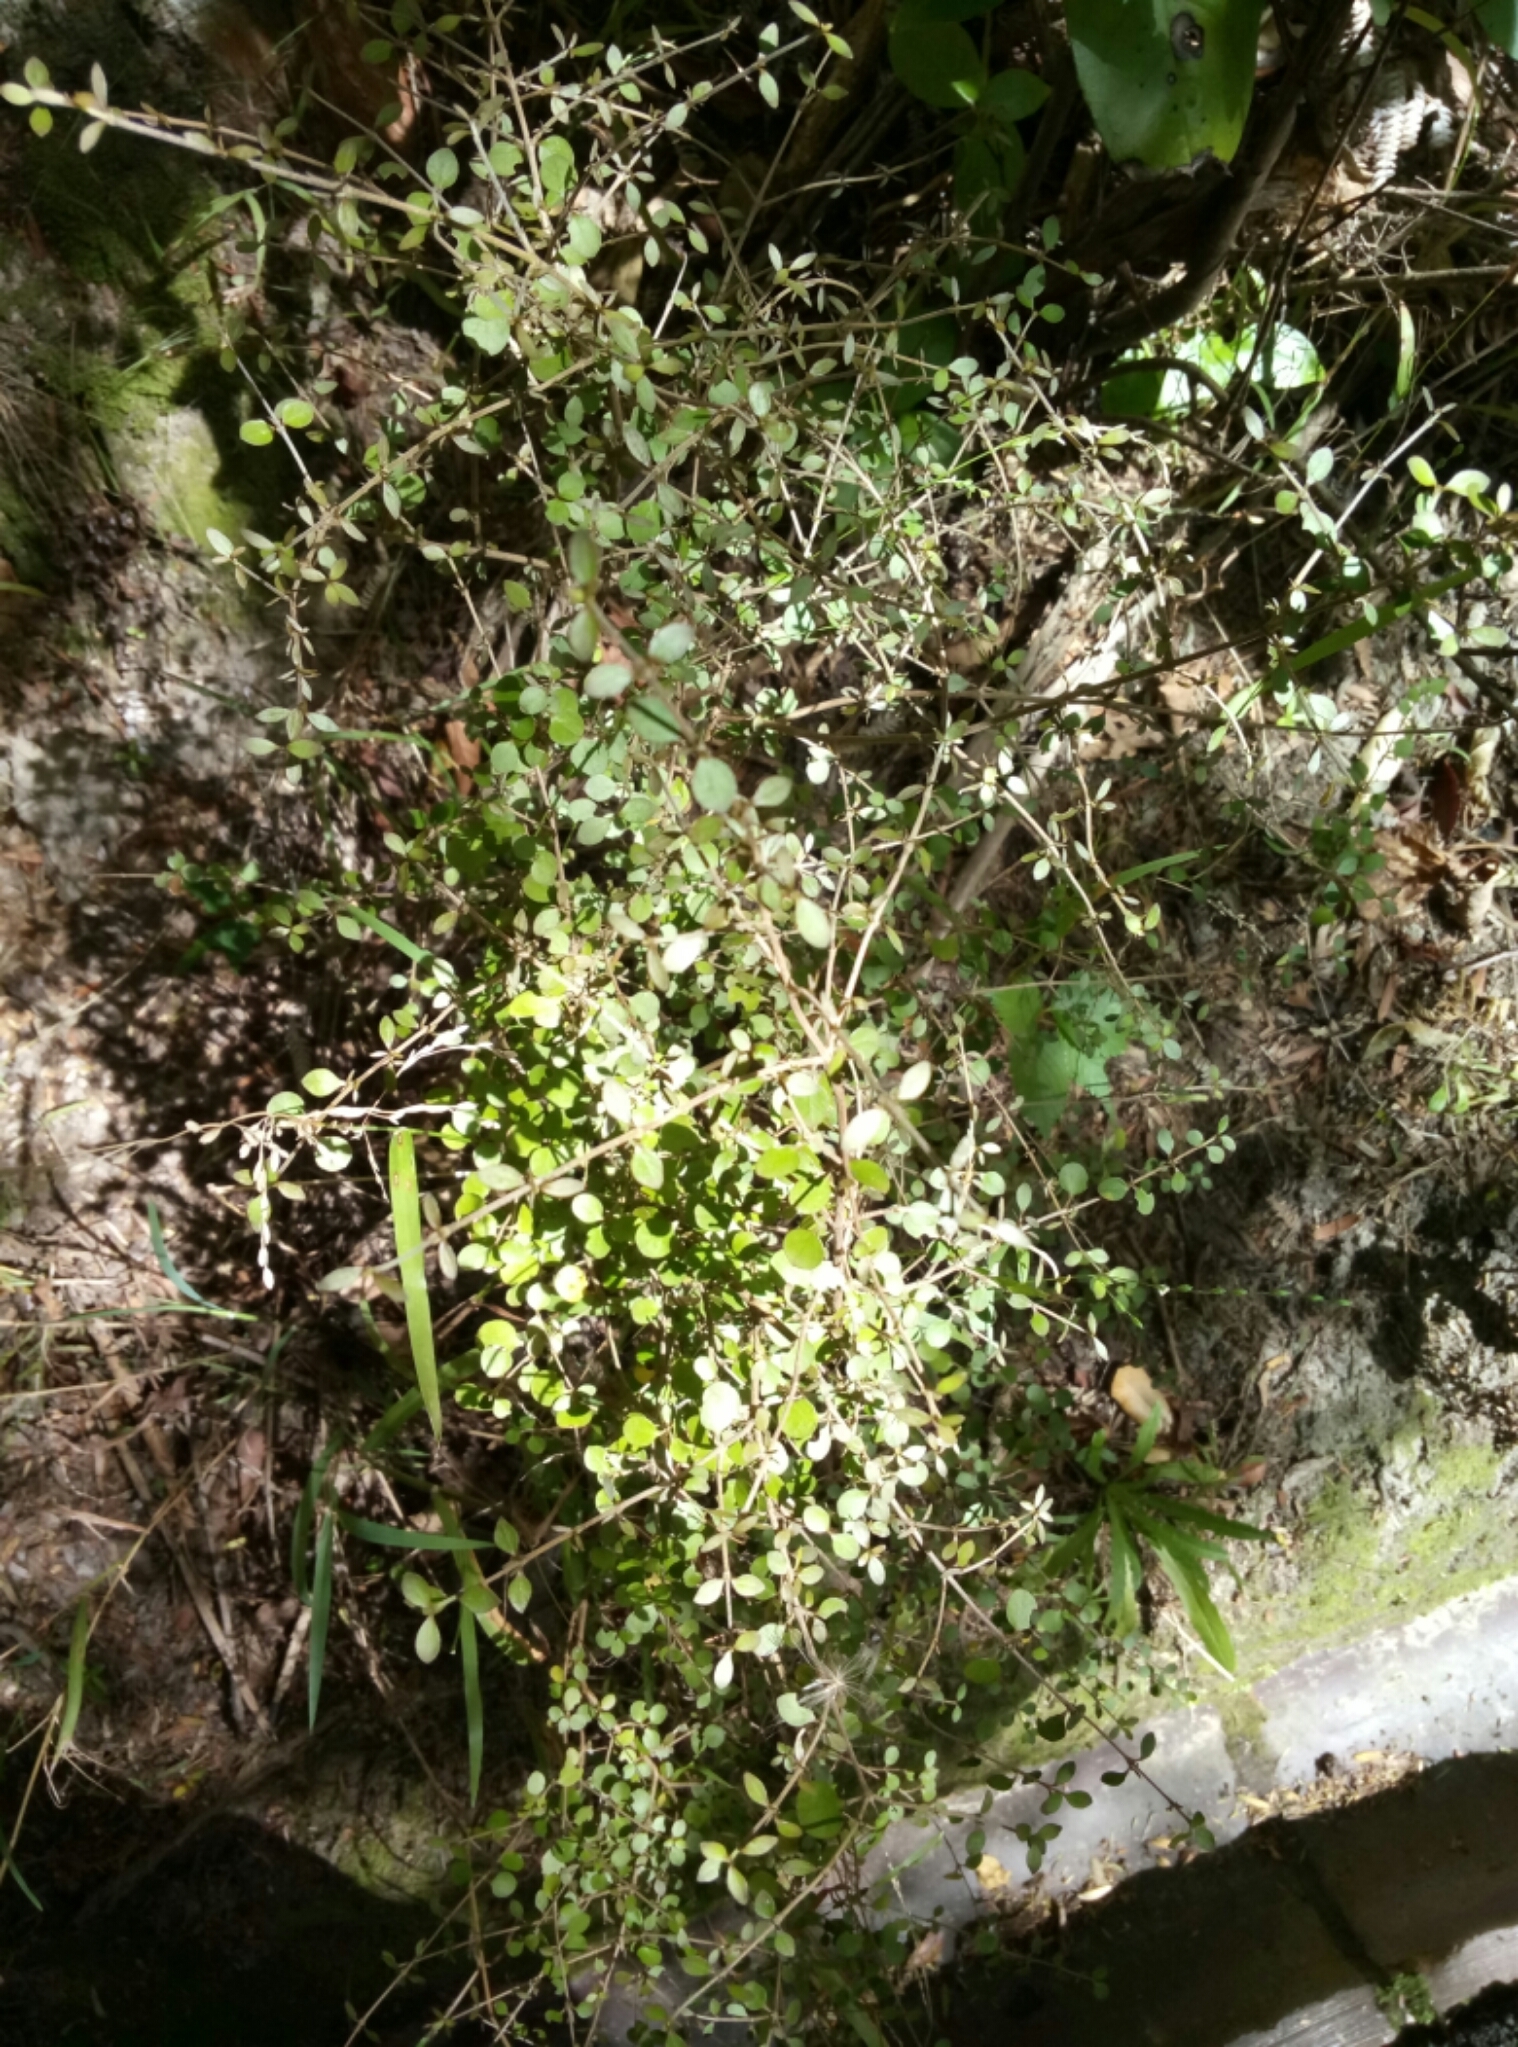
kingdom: Plantae
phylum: Tracheophyta
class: Magnoliopsida
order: Gentianales
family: Rubiaceae
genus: Coprosma
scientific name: Coprosma rhamnoides
